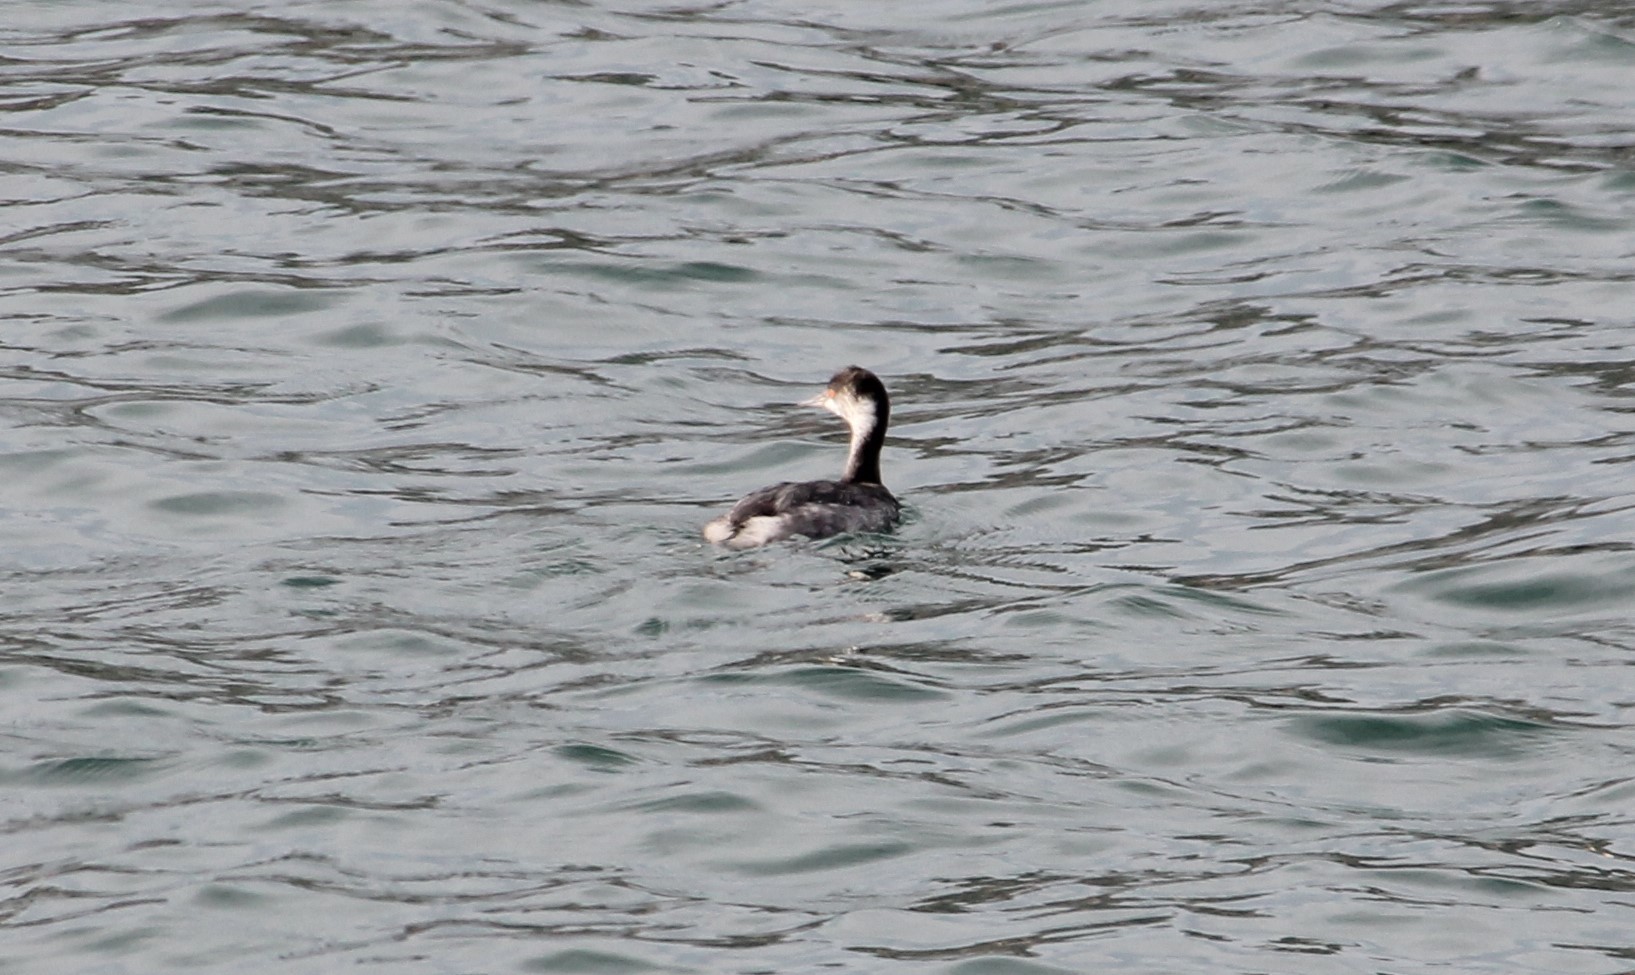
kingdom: Animalia
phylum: Chordata
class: Aves
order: Podicipediformes
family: Podicipedidae
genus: Podiceps
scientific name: Podiceps nigricollis
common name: Black-necked grebe
